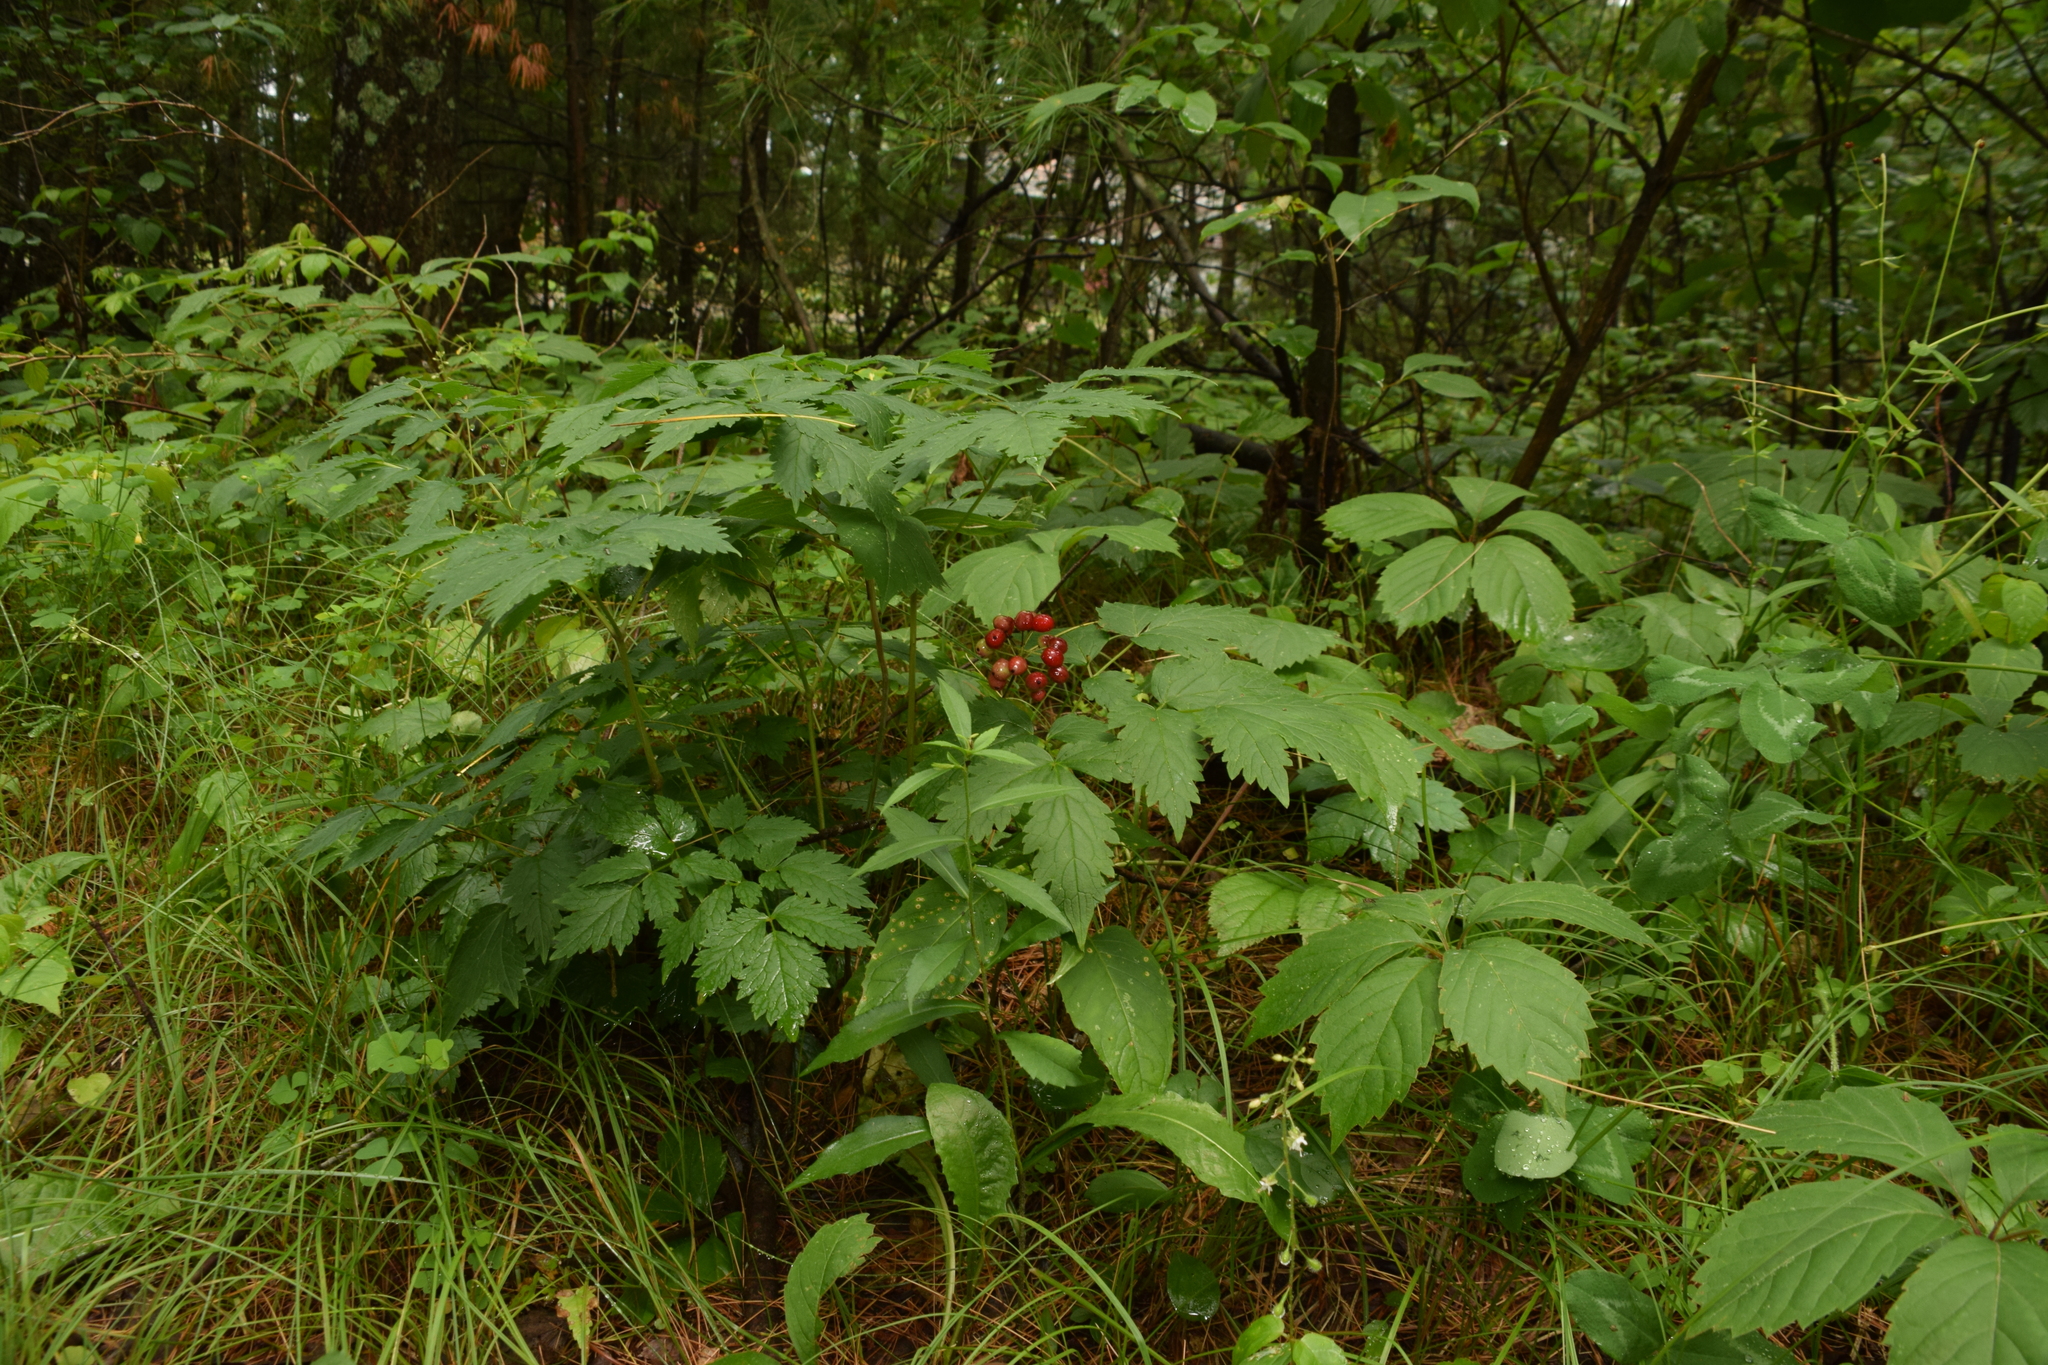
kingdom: Plantae
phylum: Tracheophyta
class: Magnoliopsida
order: Ranunculales
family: Ranunculaceae
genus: Actaea
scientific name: Actaea rubra
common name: Red baneberry
